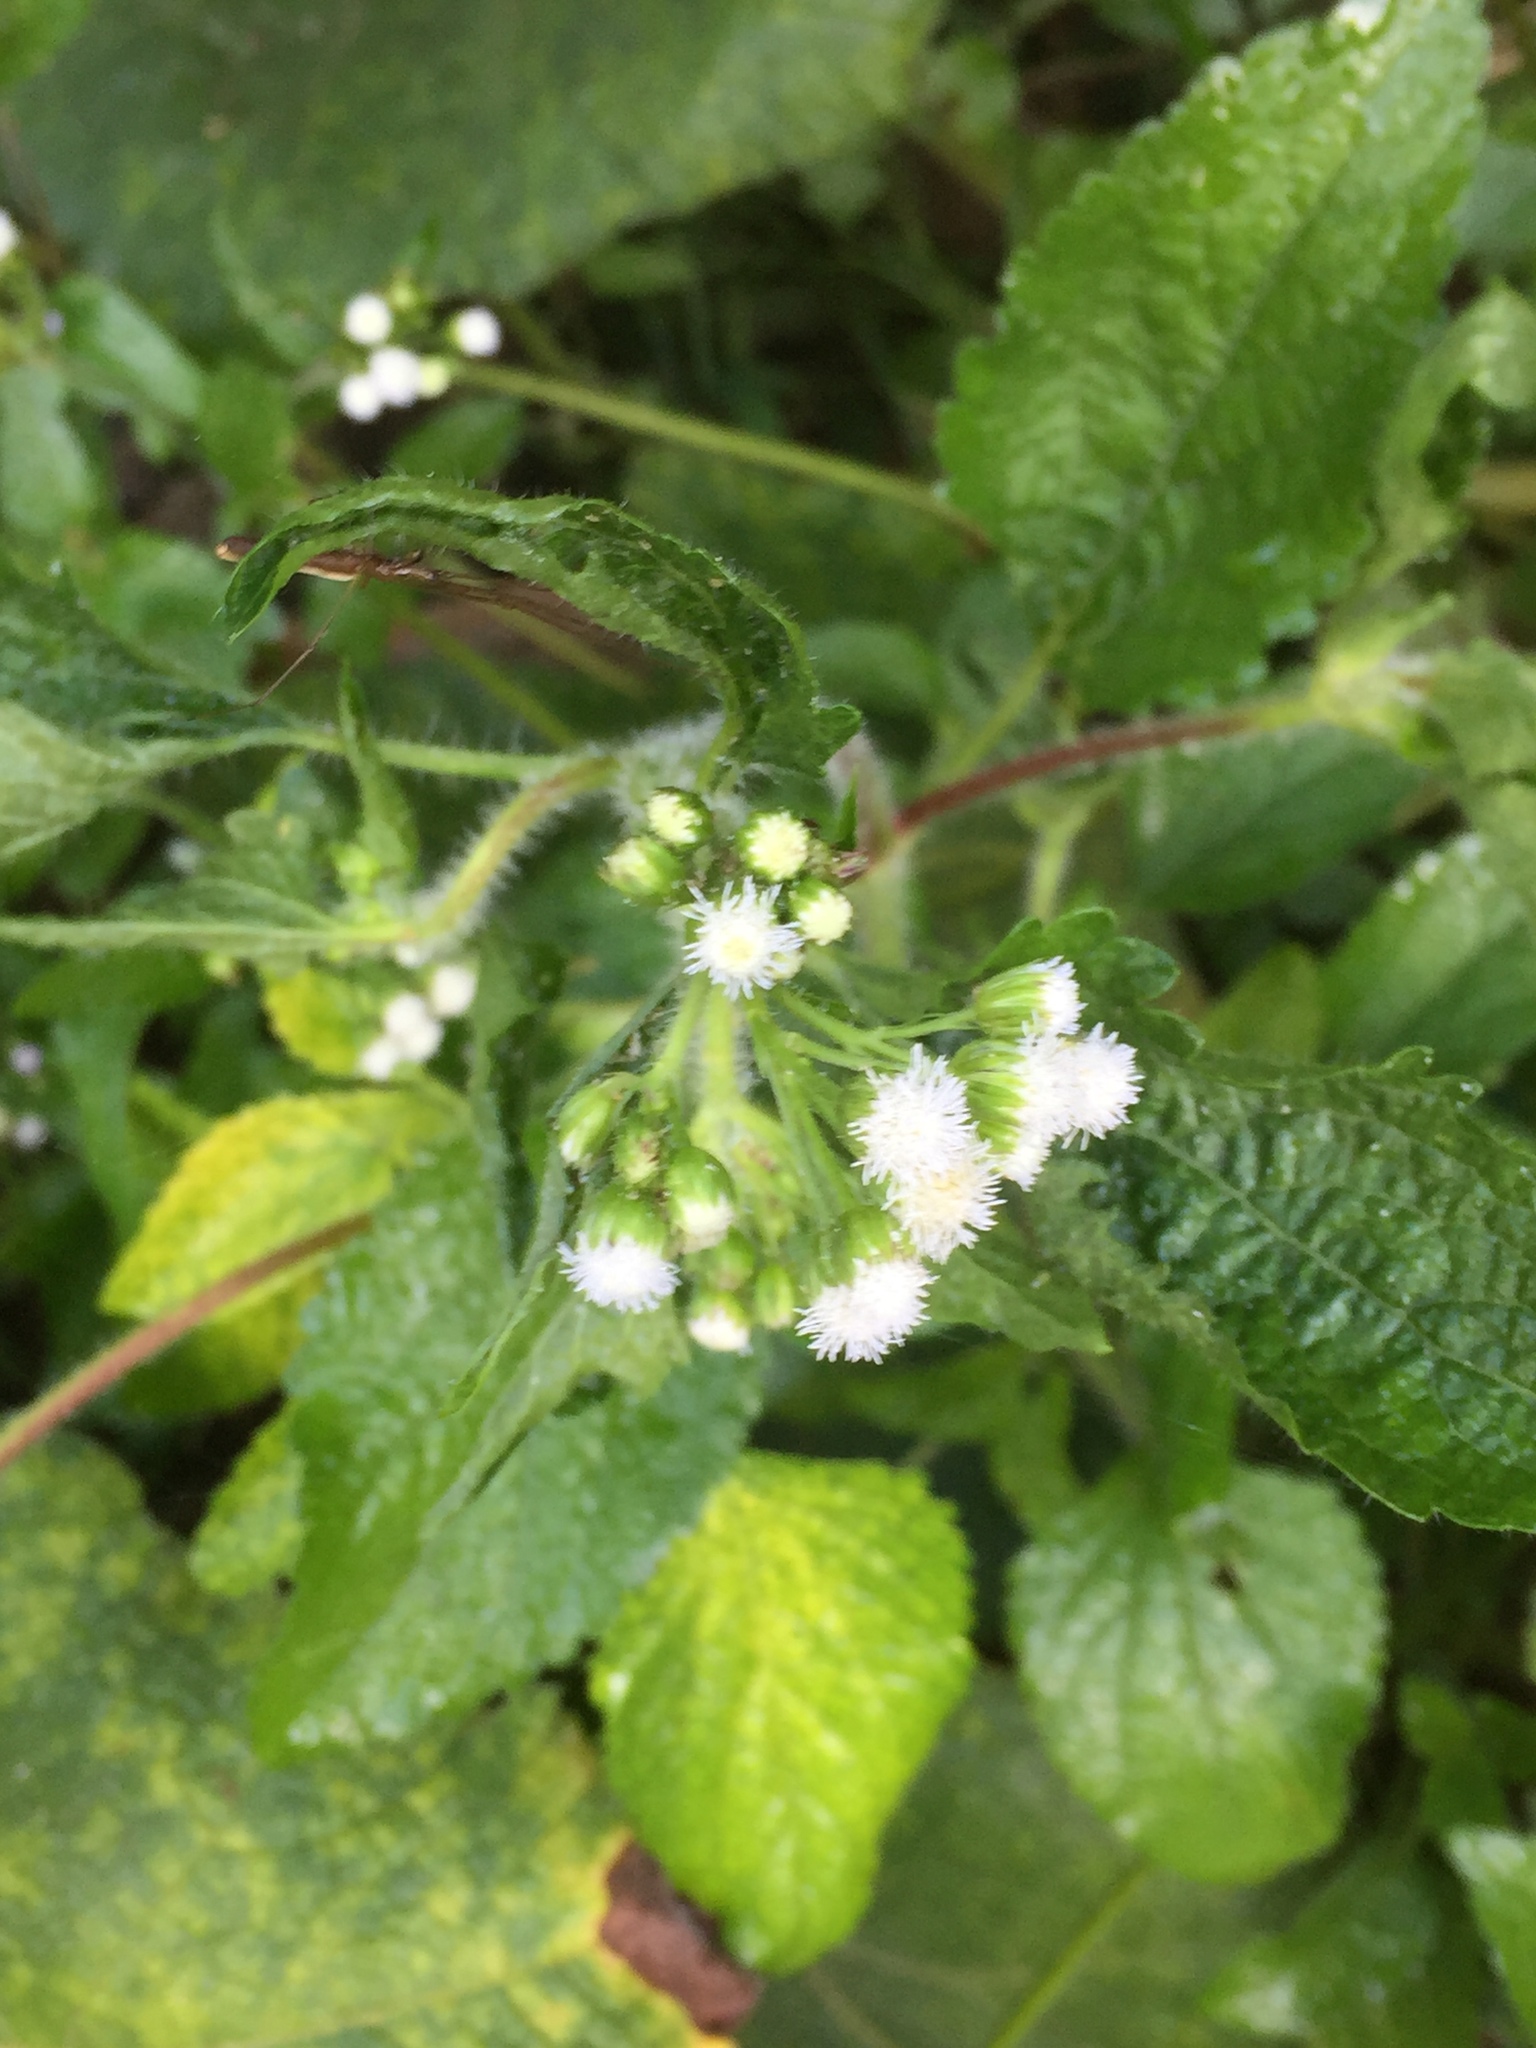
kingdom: Plantae
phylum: Tracheophyta
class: Magnoliopsida
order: Asterales
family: Asteraceae
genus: Ageratum
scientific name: Ageratum conyzoides
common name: Tropical whiteweed
